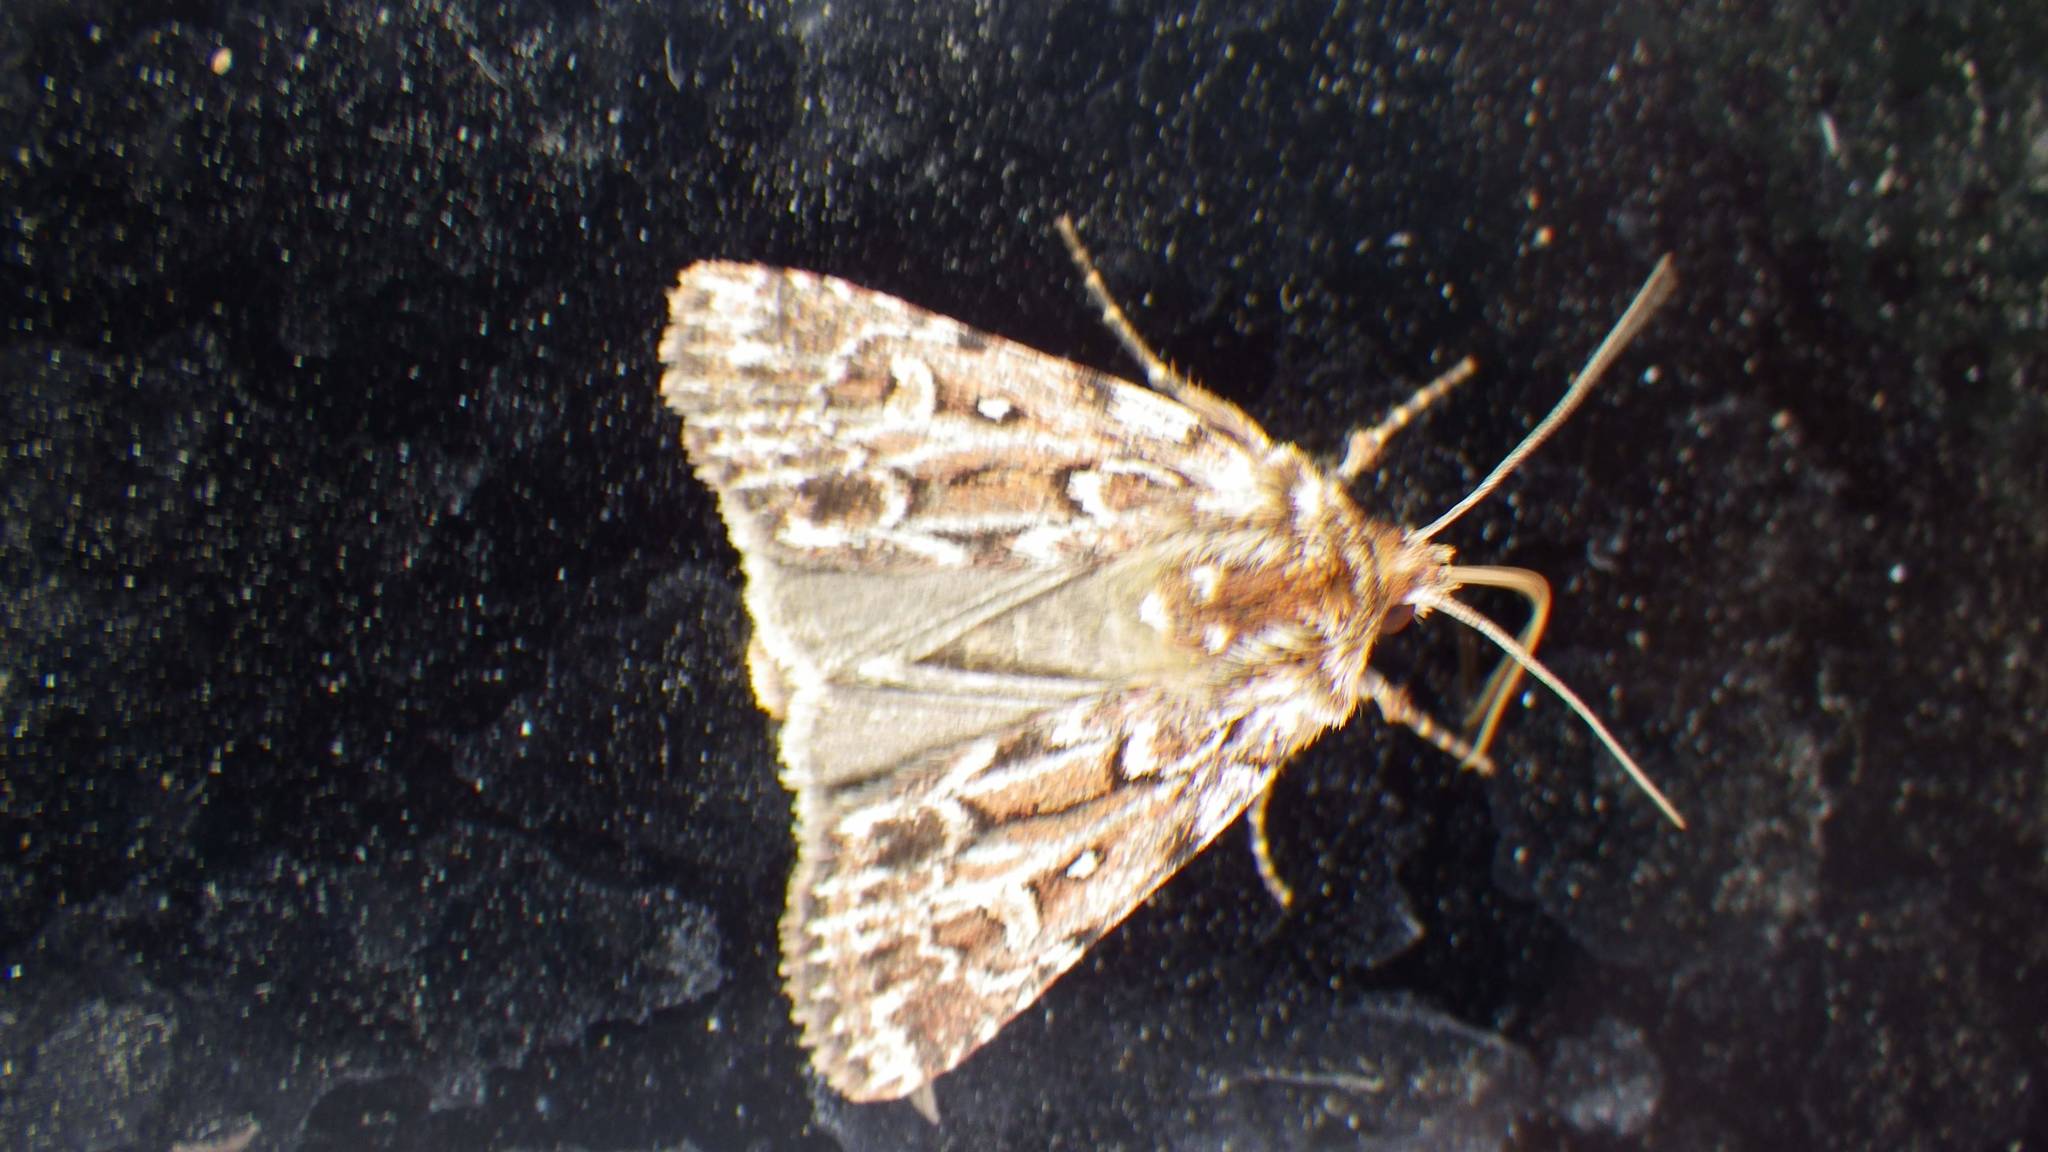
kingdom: Animalia
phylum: Arthropoda
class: Insecta
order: Lepidoptera
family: Noctuidae
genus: Lycophotia
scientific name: Lycophotia porphyrea
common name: True lover's knot
